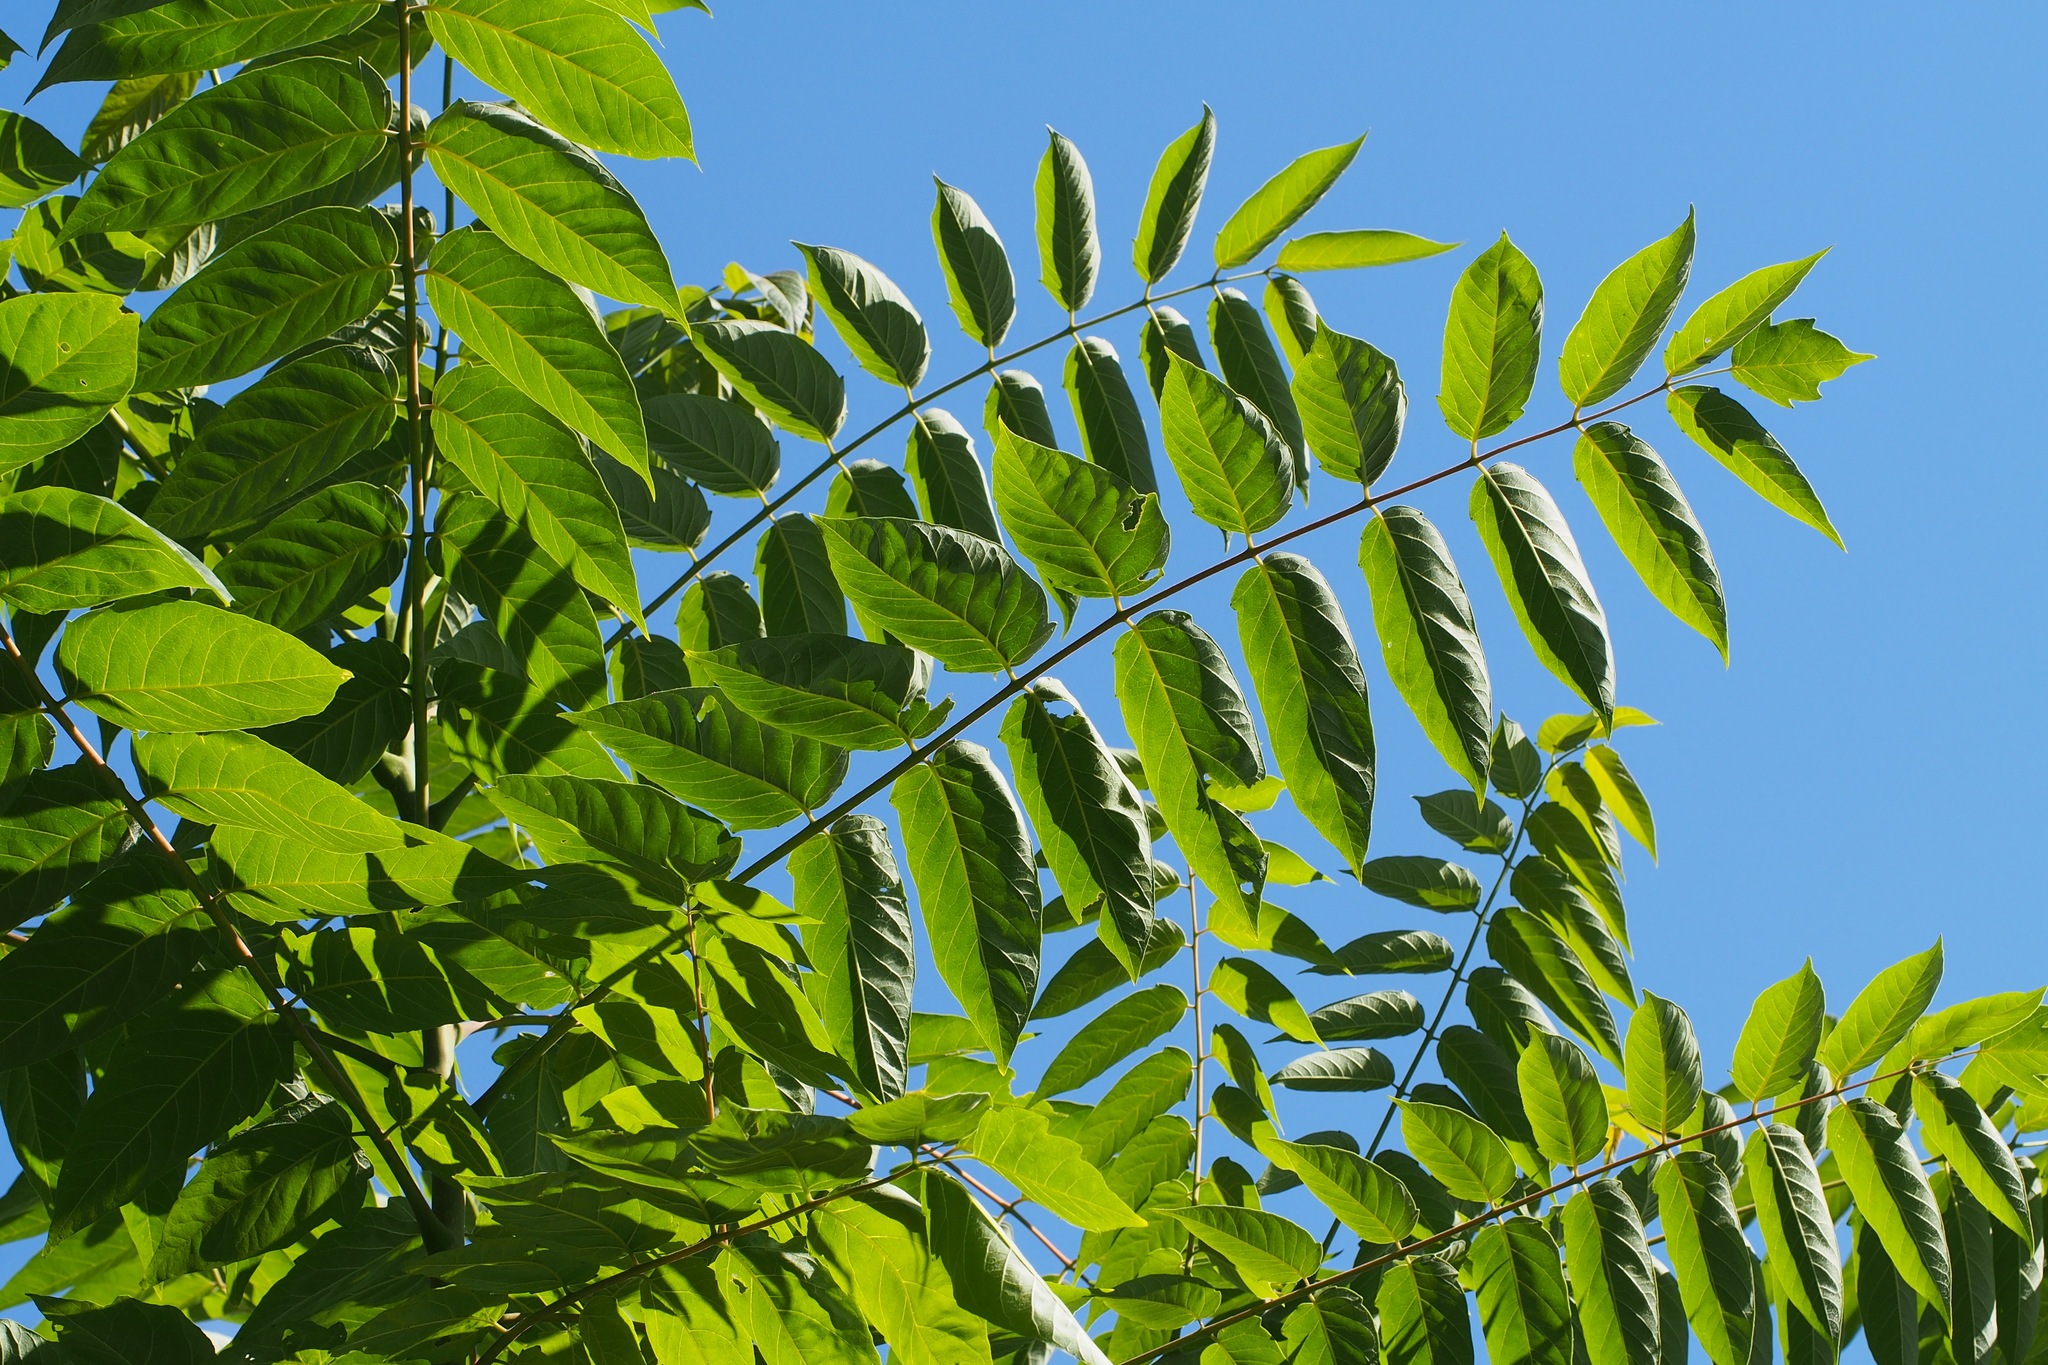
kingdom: Plantae
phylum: Tracheophyta
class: Magnoliopsida
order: Sapindales
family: Simaroubaceae
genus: Ailanthus
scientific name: Ailanthus altissima
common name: Tree-of-heaven
